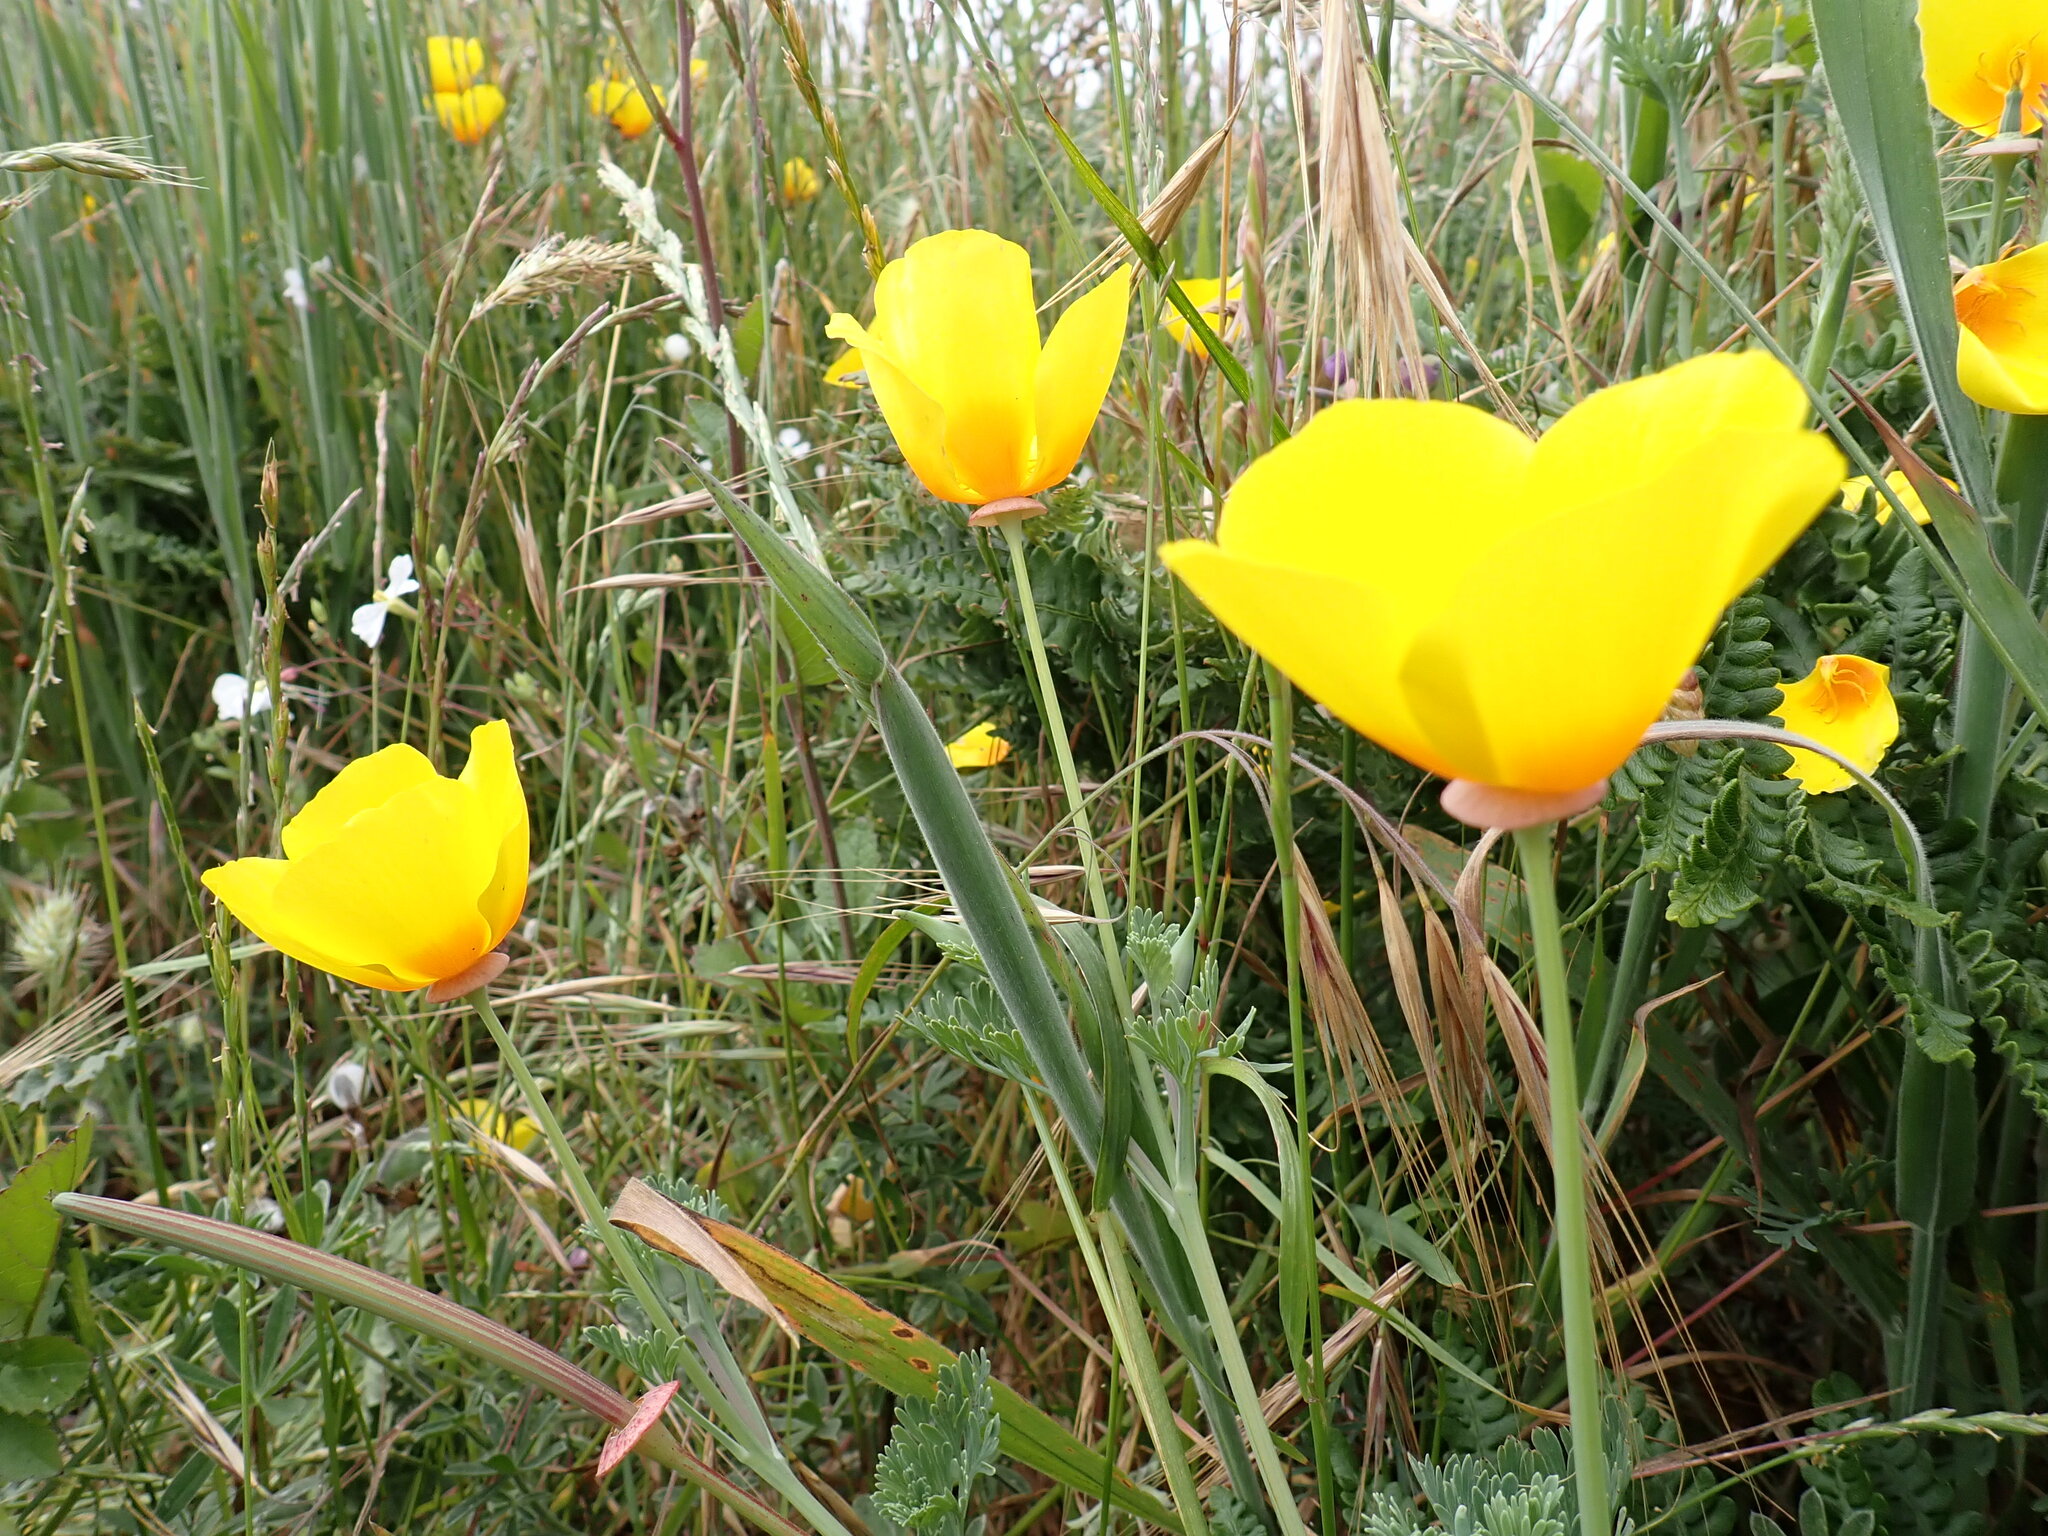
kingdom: Plantae
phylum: Tracheophyta
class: Magnoliopsida
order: Ranunculales
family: Papaveraceae
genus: Eschscholzia
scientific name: Eschscholzia californica
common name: California poppy
